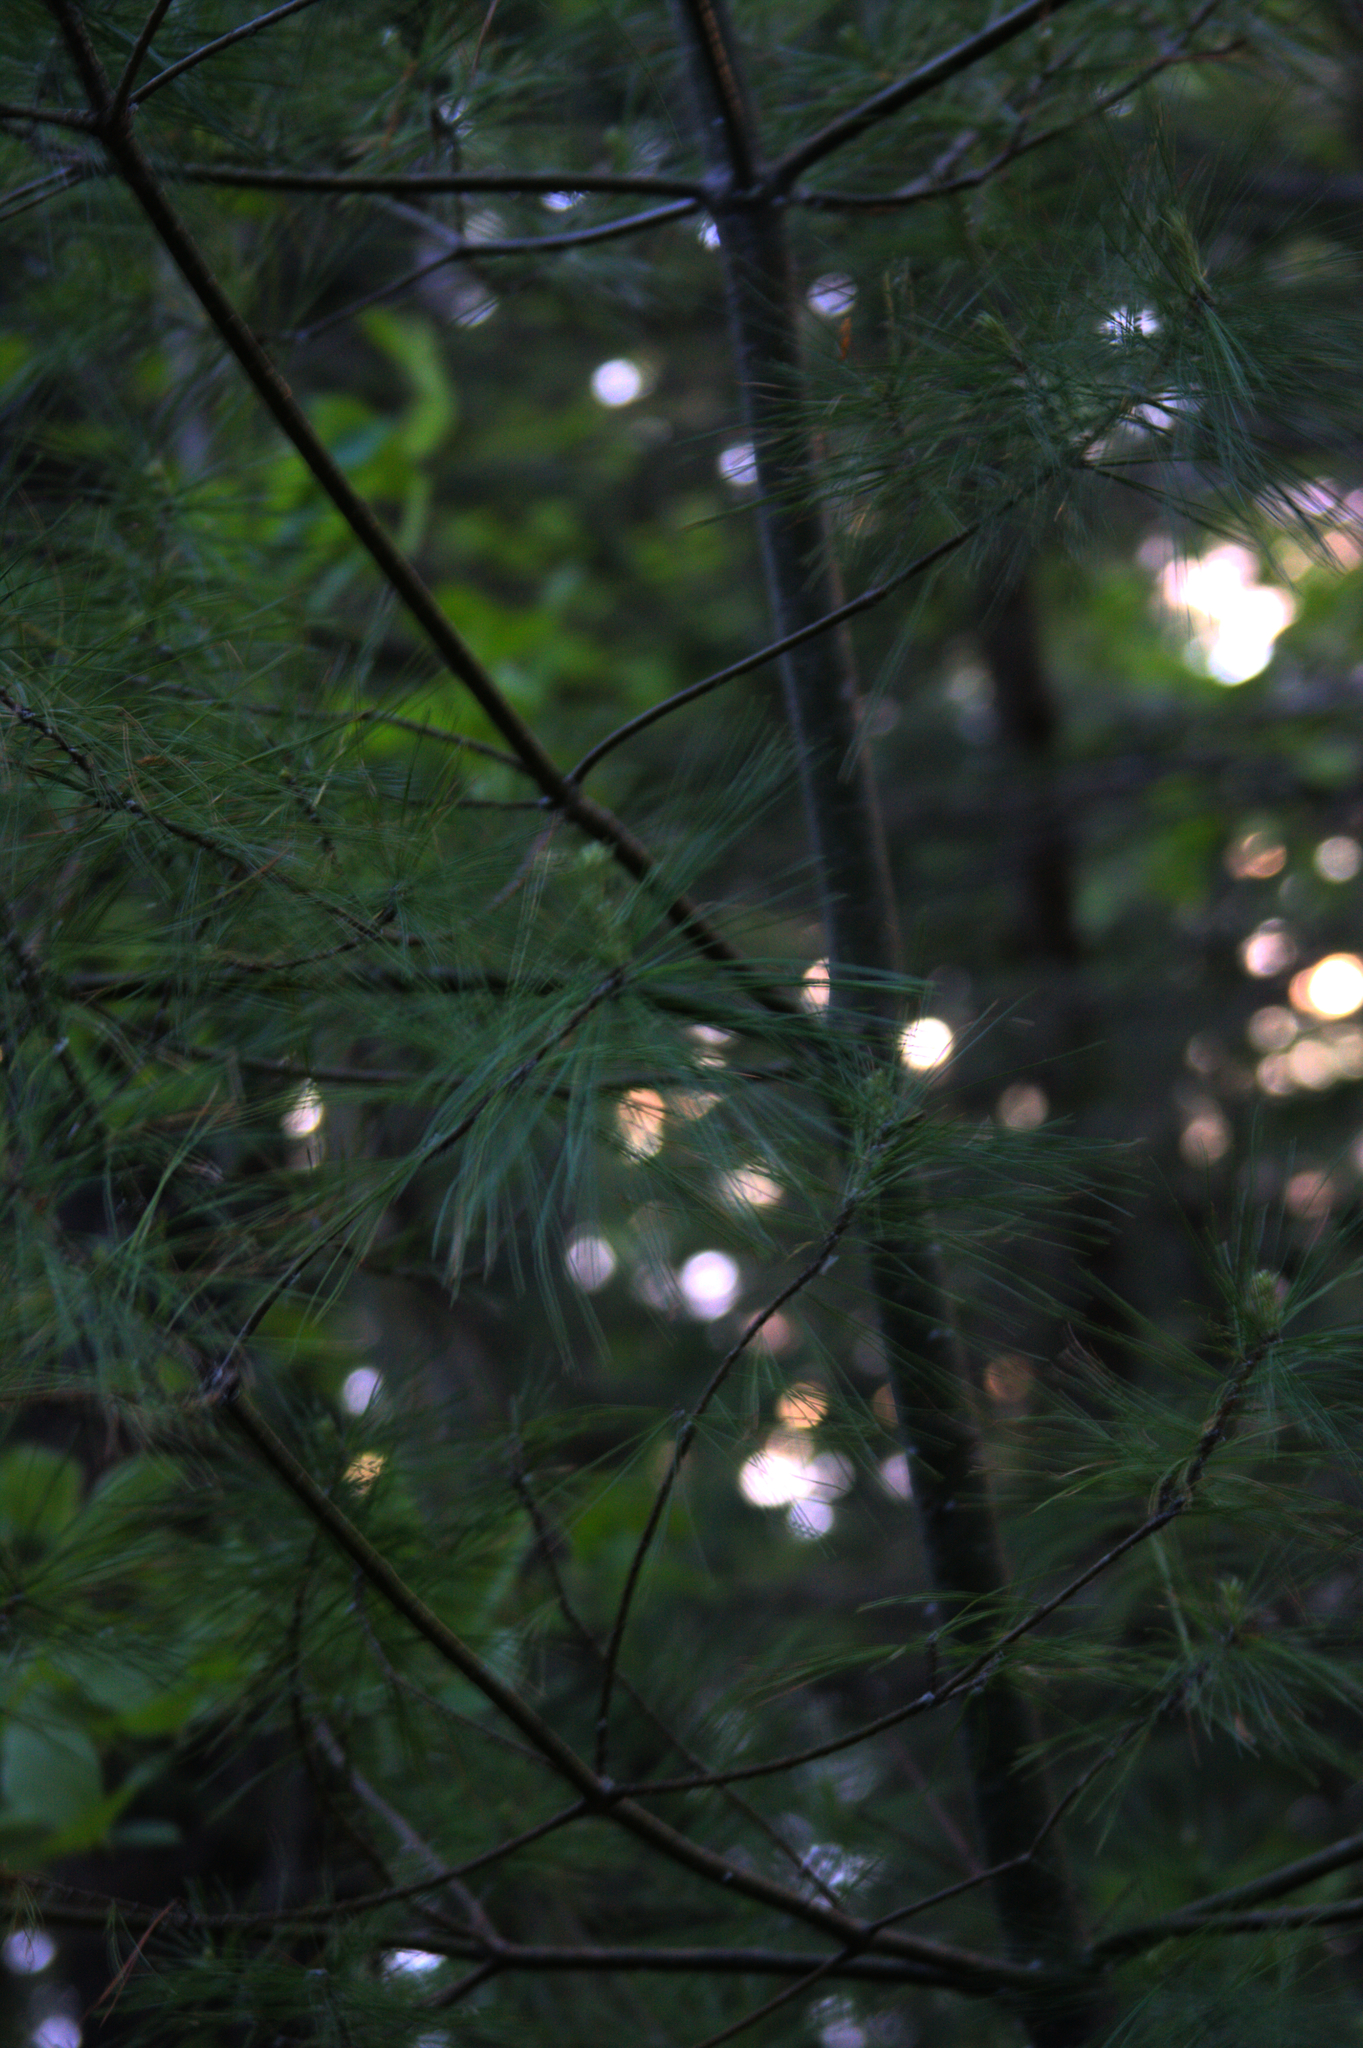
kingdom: Plantae
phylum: Tracheophyta
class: Pinopsida
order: Pinales
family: Pinaceae
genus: Pinus
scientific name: Pinus strobus
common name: Weymouth pine
